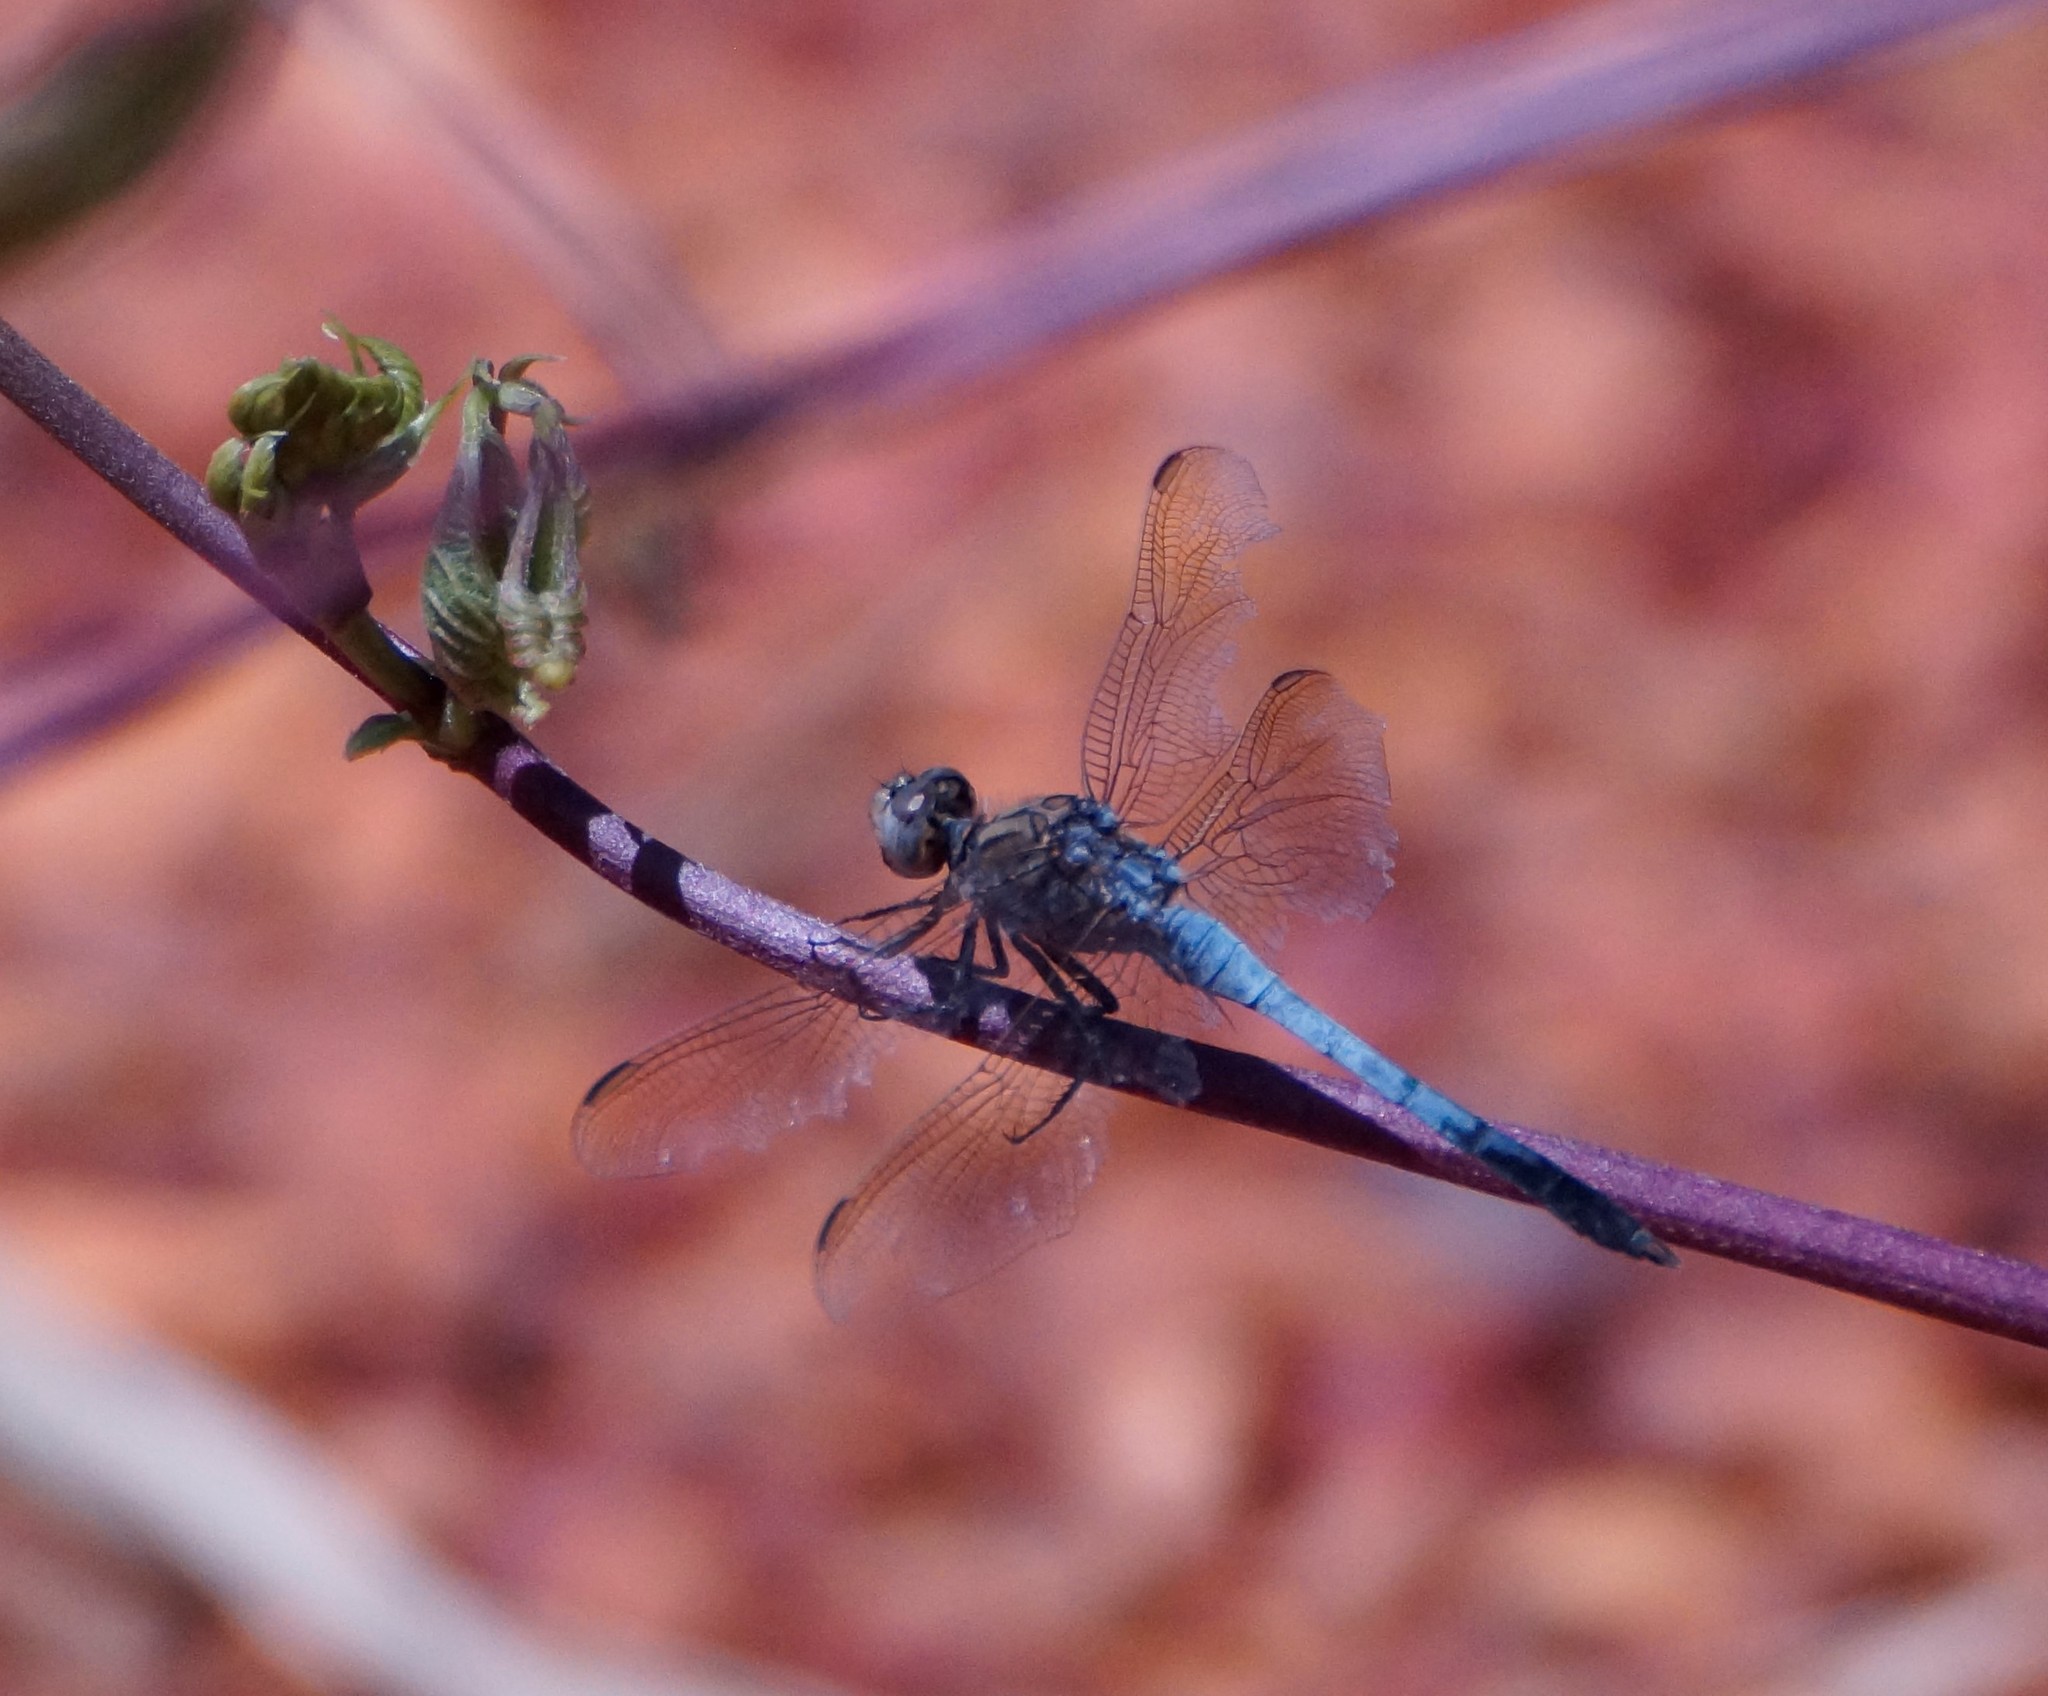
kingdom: Animalia
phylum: Arthropoda
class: Insecta
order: Odonata
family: Libellulidae
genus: Orthetrum
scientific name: Orthetrum caledonicum
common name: Blue skimmer
